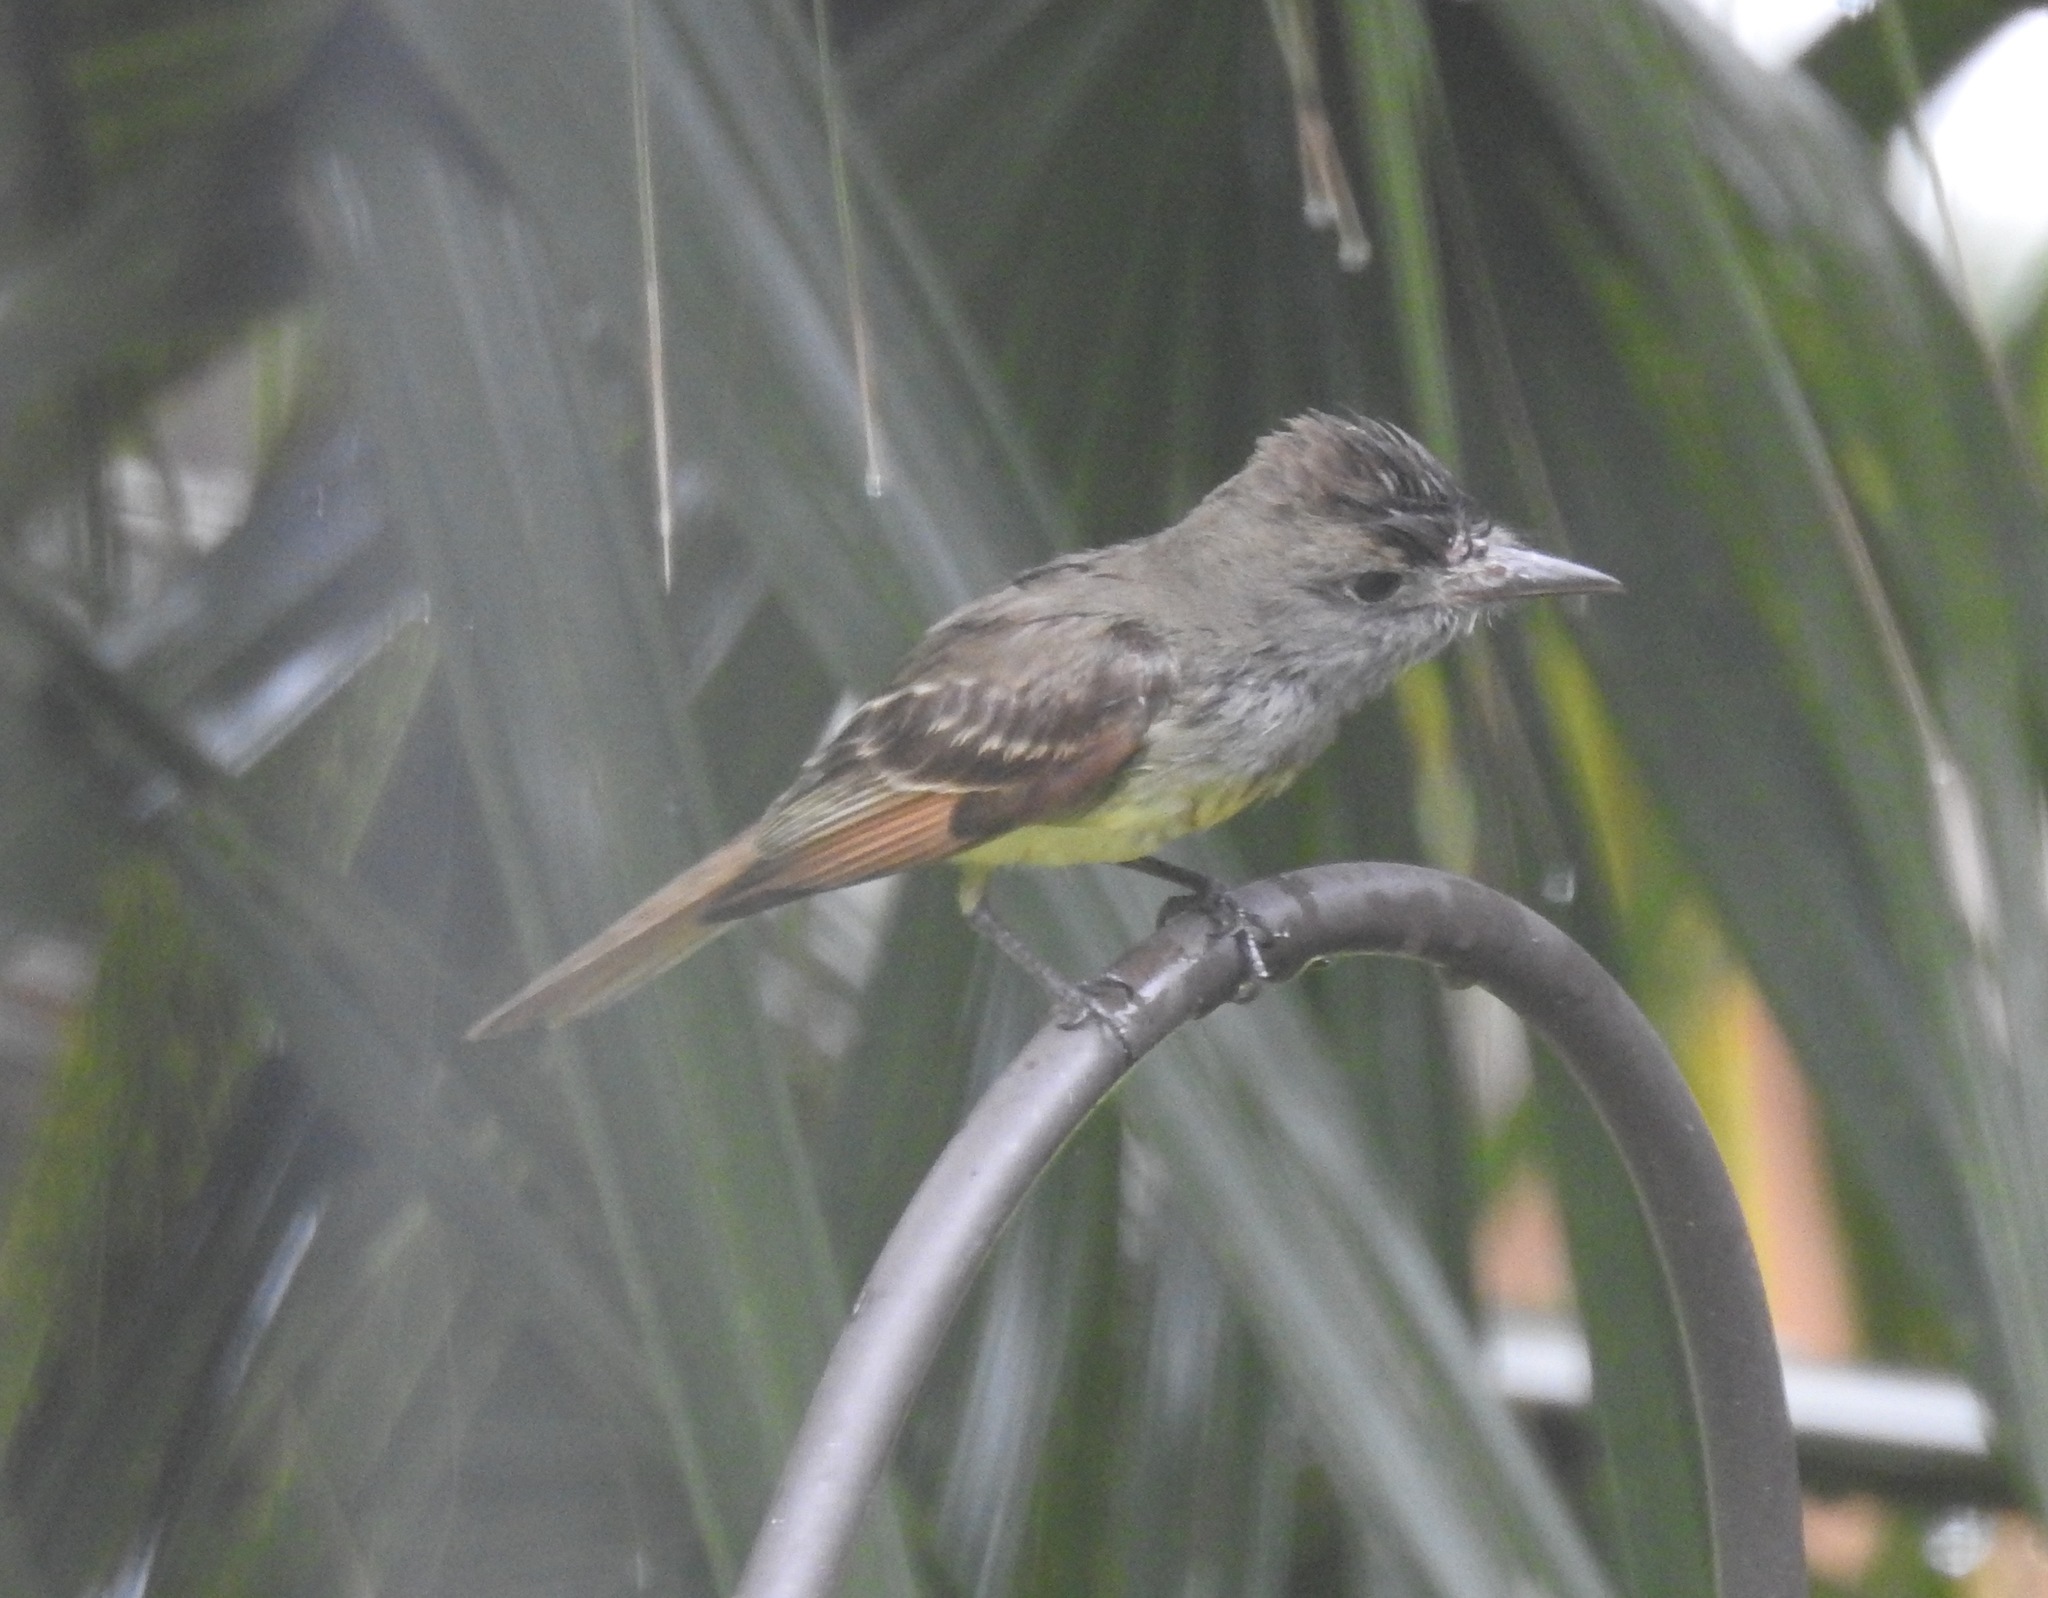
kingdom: Animalia
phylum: Chordata
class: Aves
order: Passeriformes
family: Tyrannidae
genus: Myiarchus
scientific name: Myiarchus crinitus
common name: Great crested flycatcher
